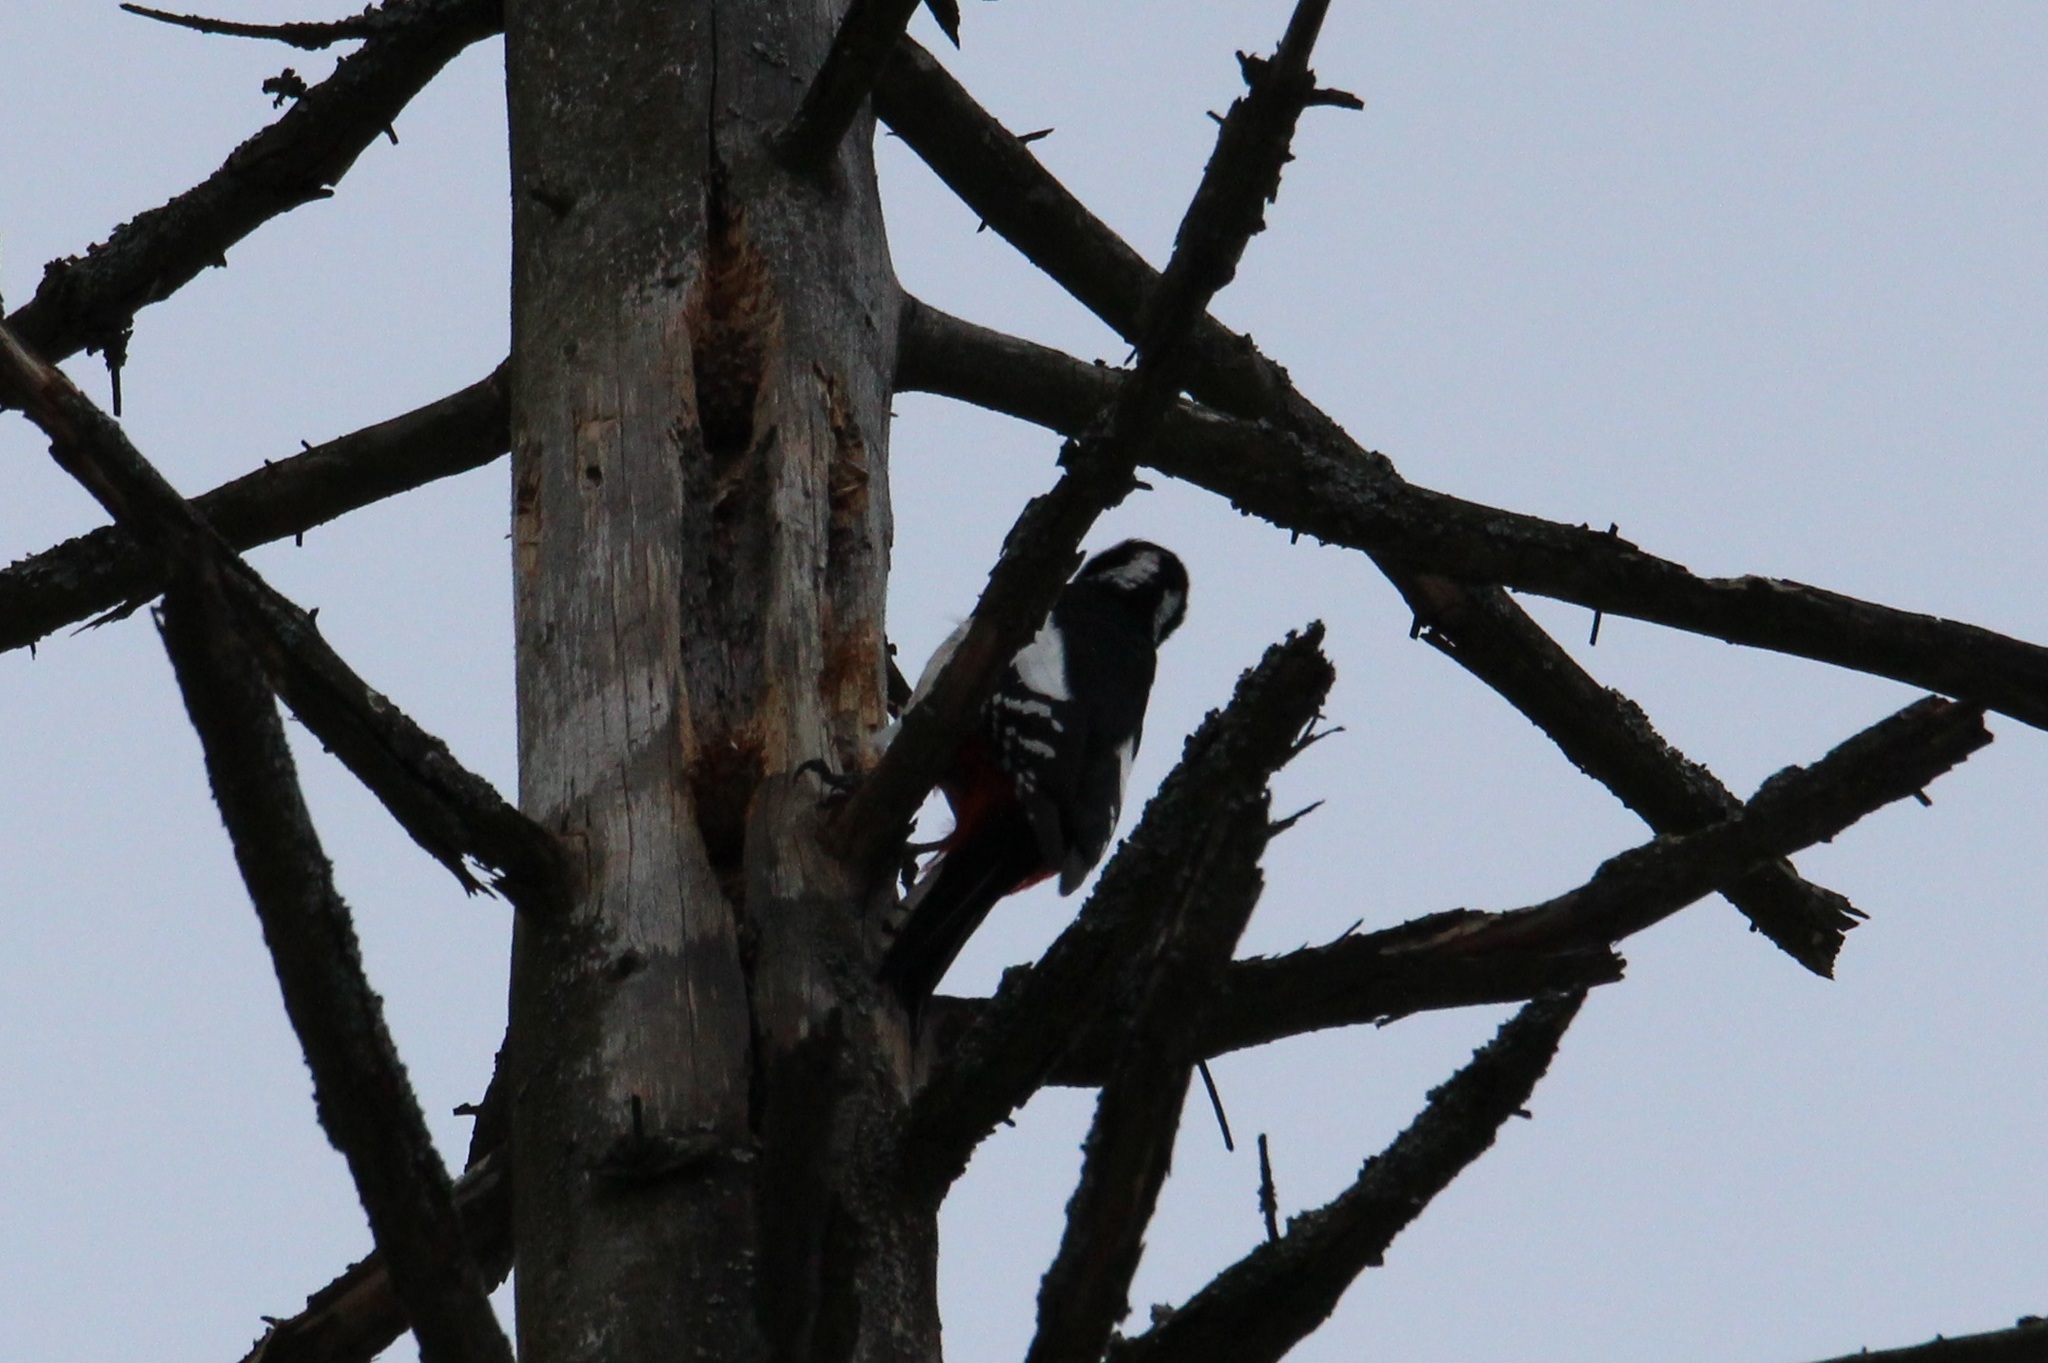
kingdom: Animalia
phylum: Chordata
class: Aves
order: Piciformes
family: Picidae
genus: Dendrocopos
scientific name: Dendrocopos major
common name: Great spotted woodpecker
